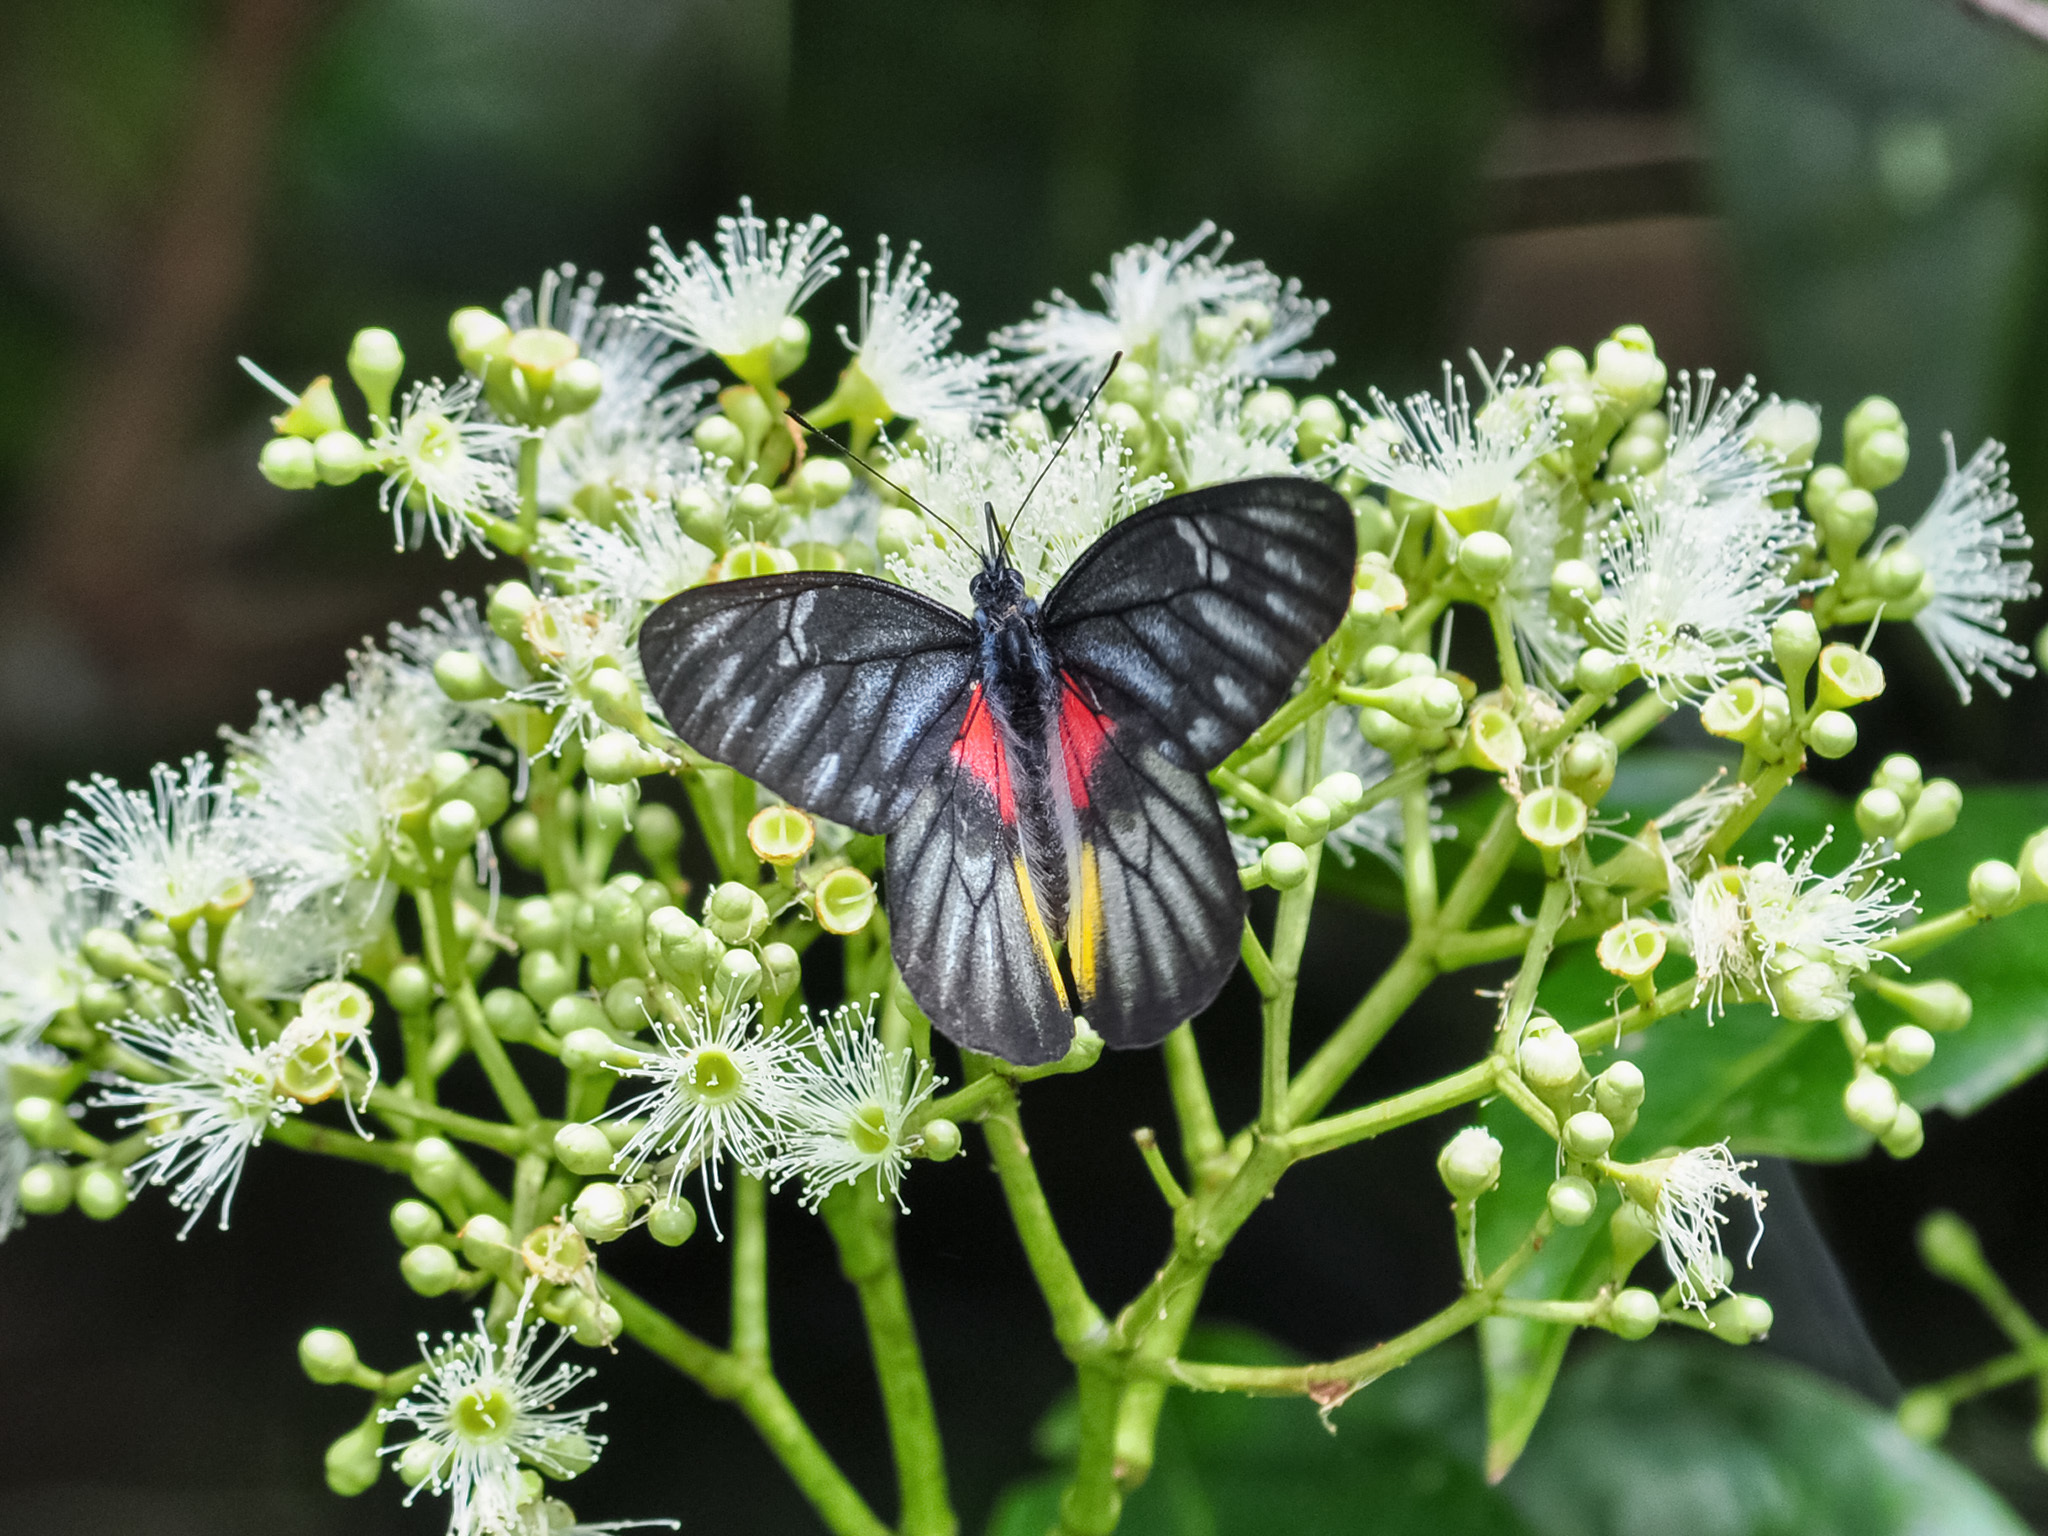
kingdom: Animalia
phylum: Arthropoda
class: Insecta
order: Lepidoptera
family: Pieridae
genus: Delias
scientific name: Delias acalis
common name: Red-breast jezebel
